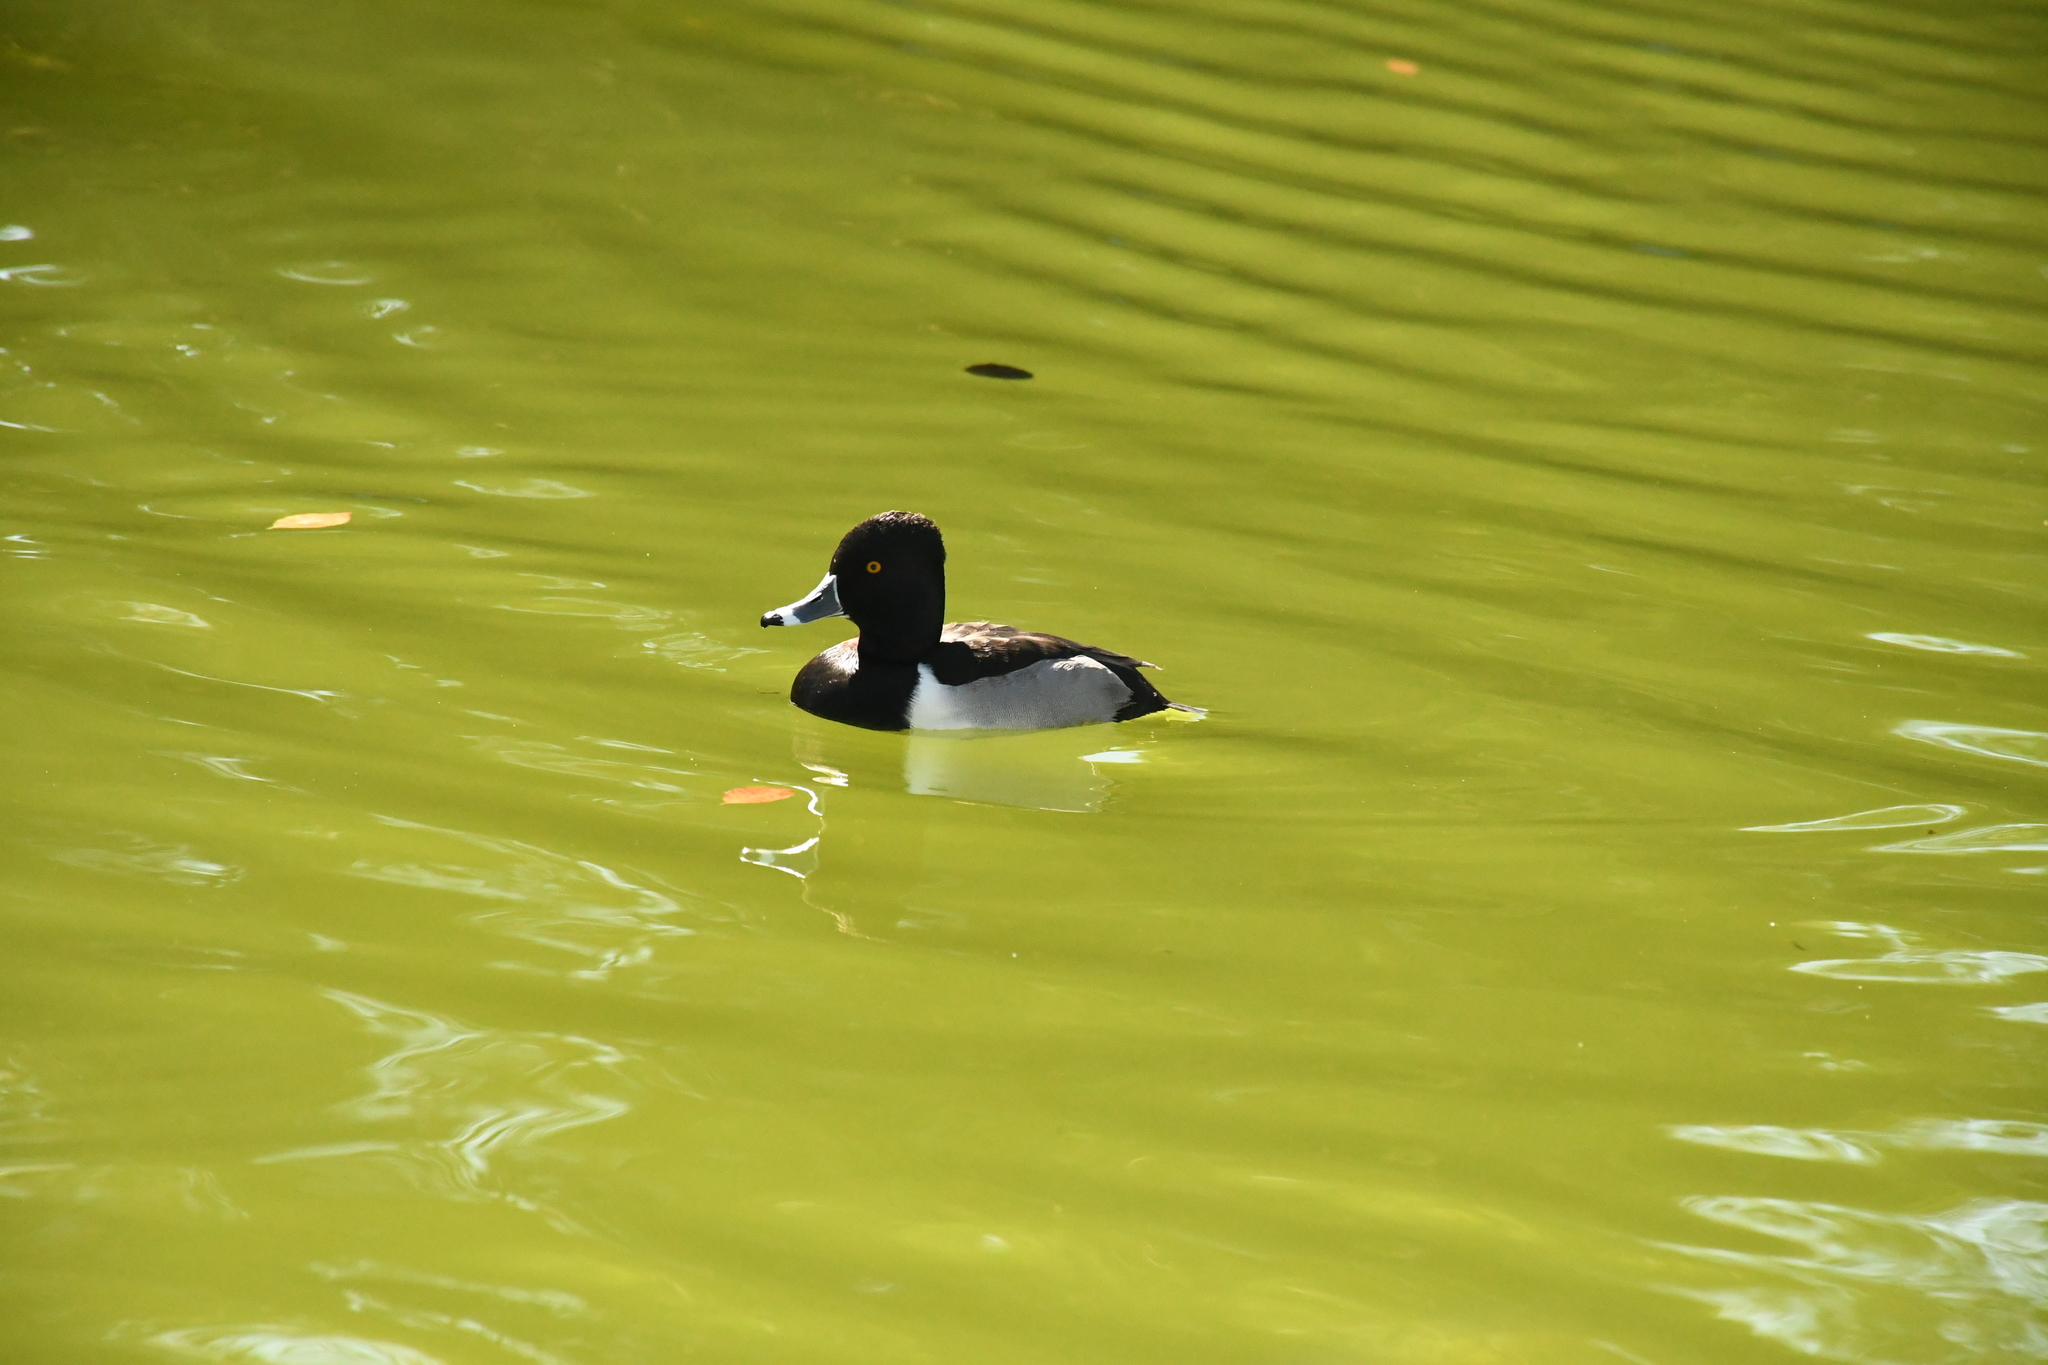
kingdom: Animalia
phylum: Chordata
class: Aves
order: Anseriformes
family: Anatidae
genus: Aythya
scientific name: Aythya collaris
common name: Ring-necked duck
